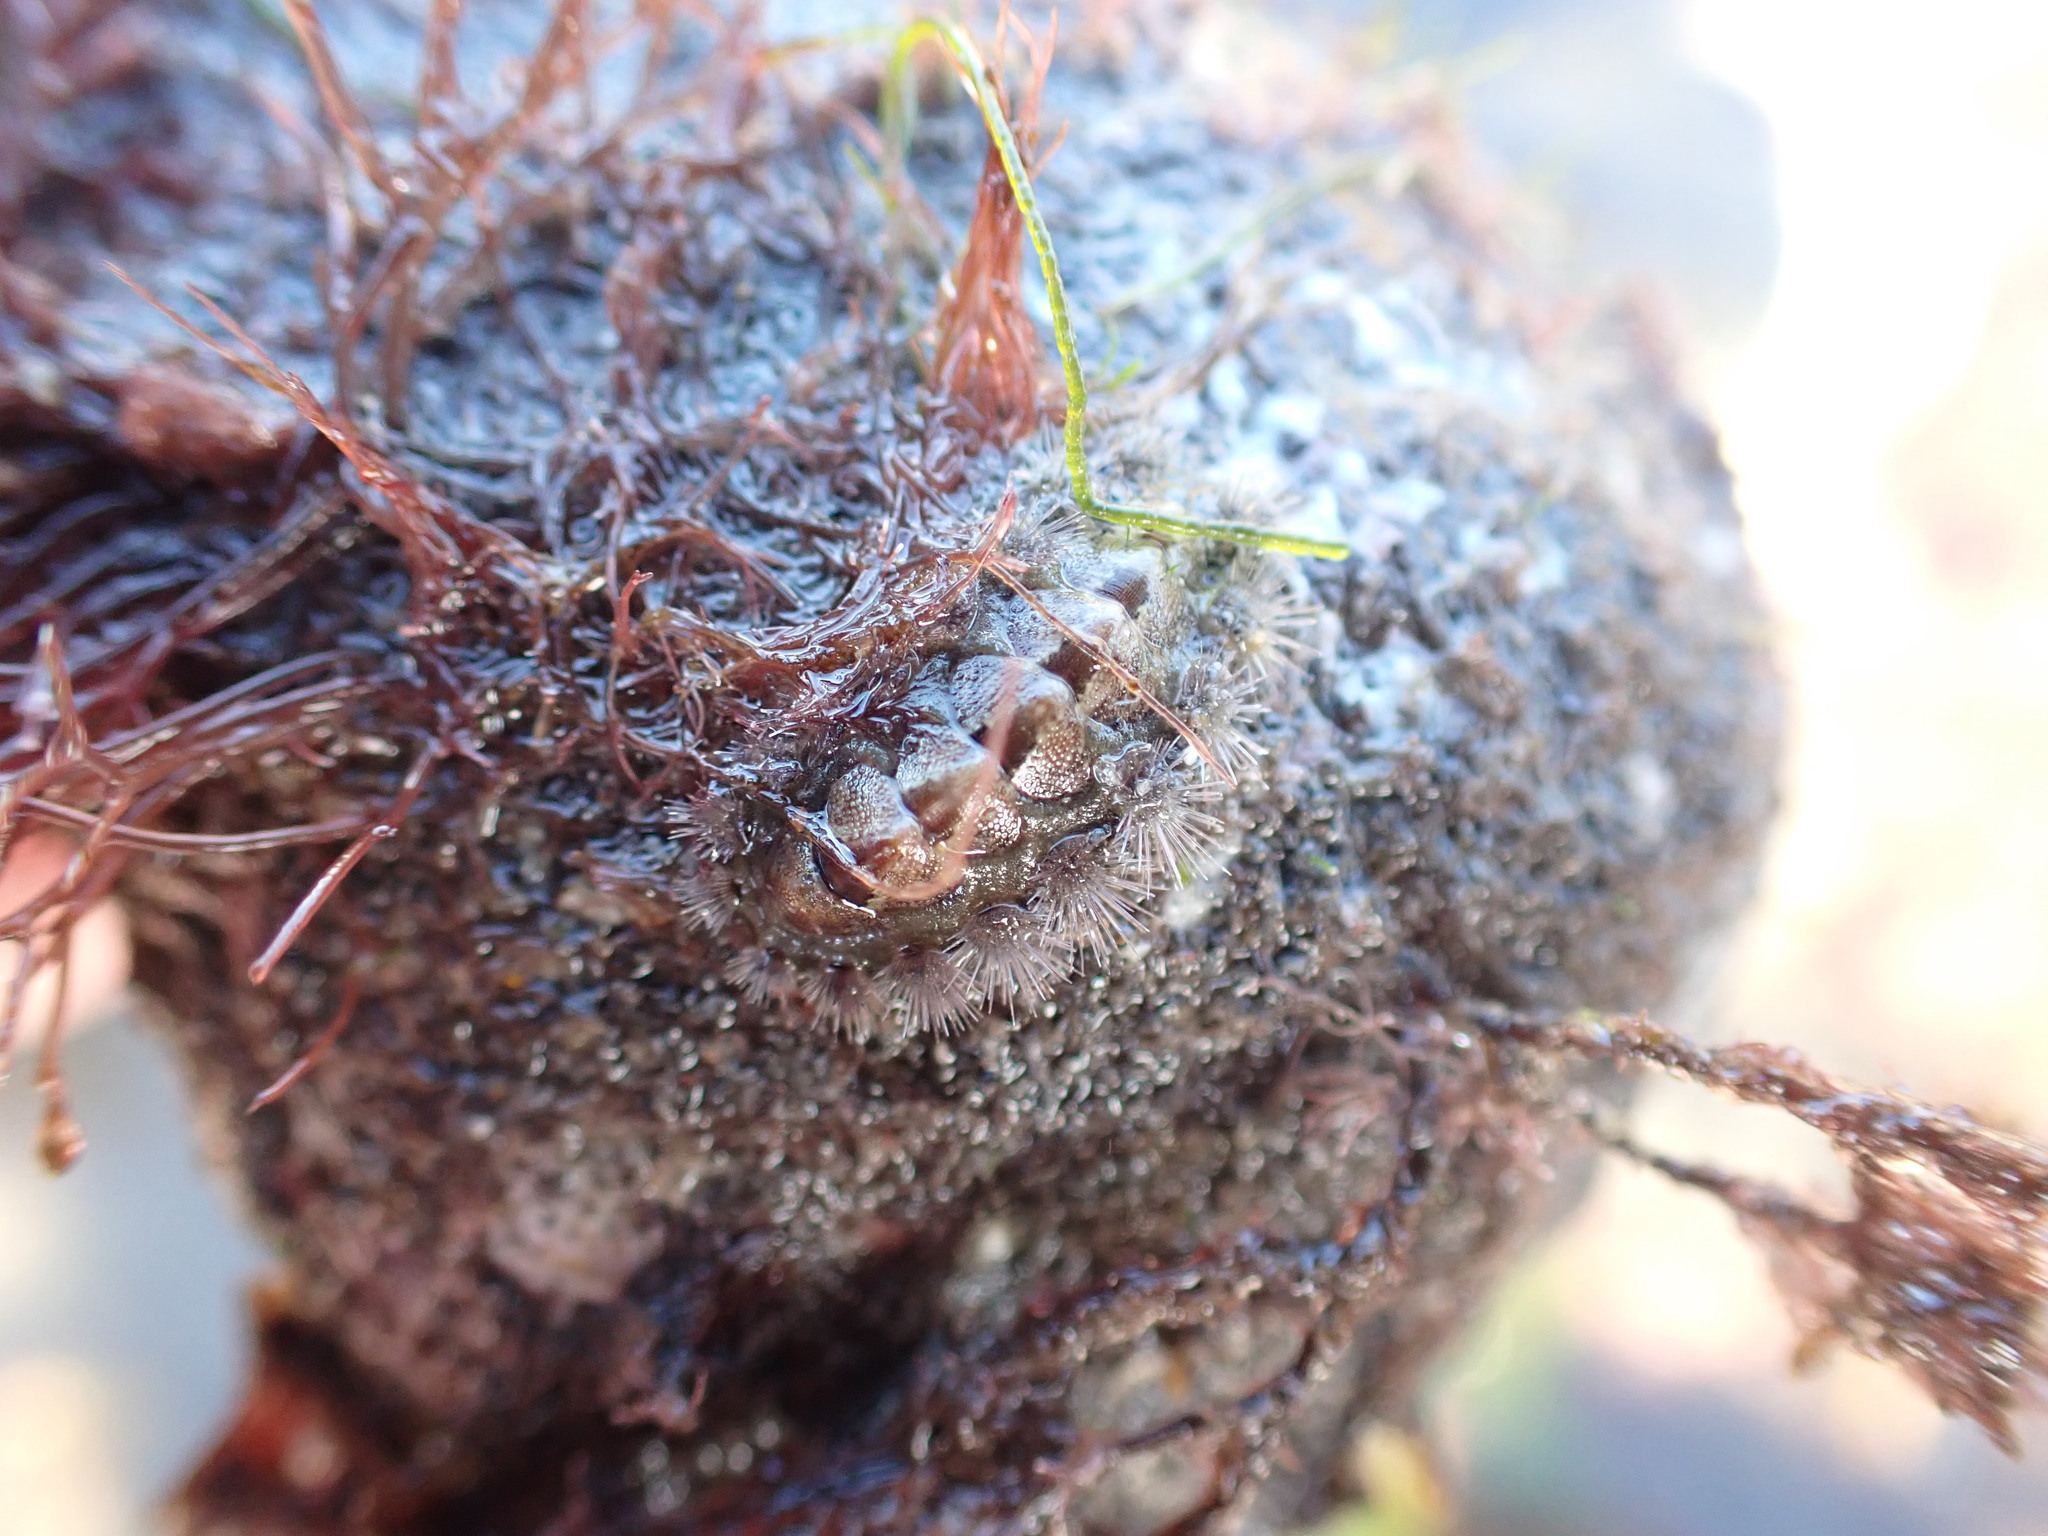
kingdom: Animalia
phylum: Mollusca
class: Polyplacophora
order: Chitonida
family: Acanthochitonidae
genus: Acanthochitona
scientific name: Acanthochitona zelandica
